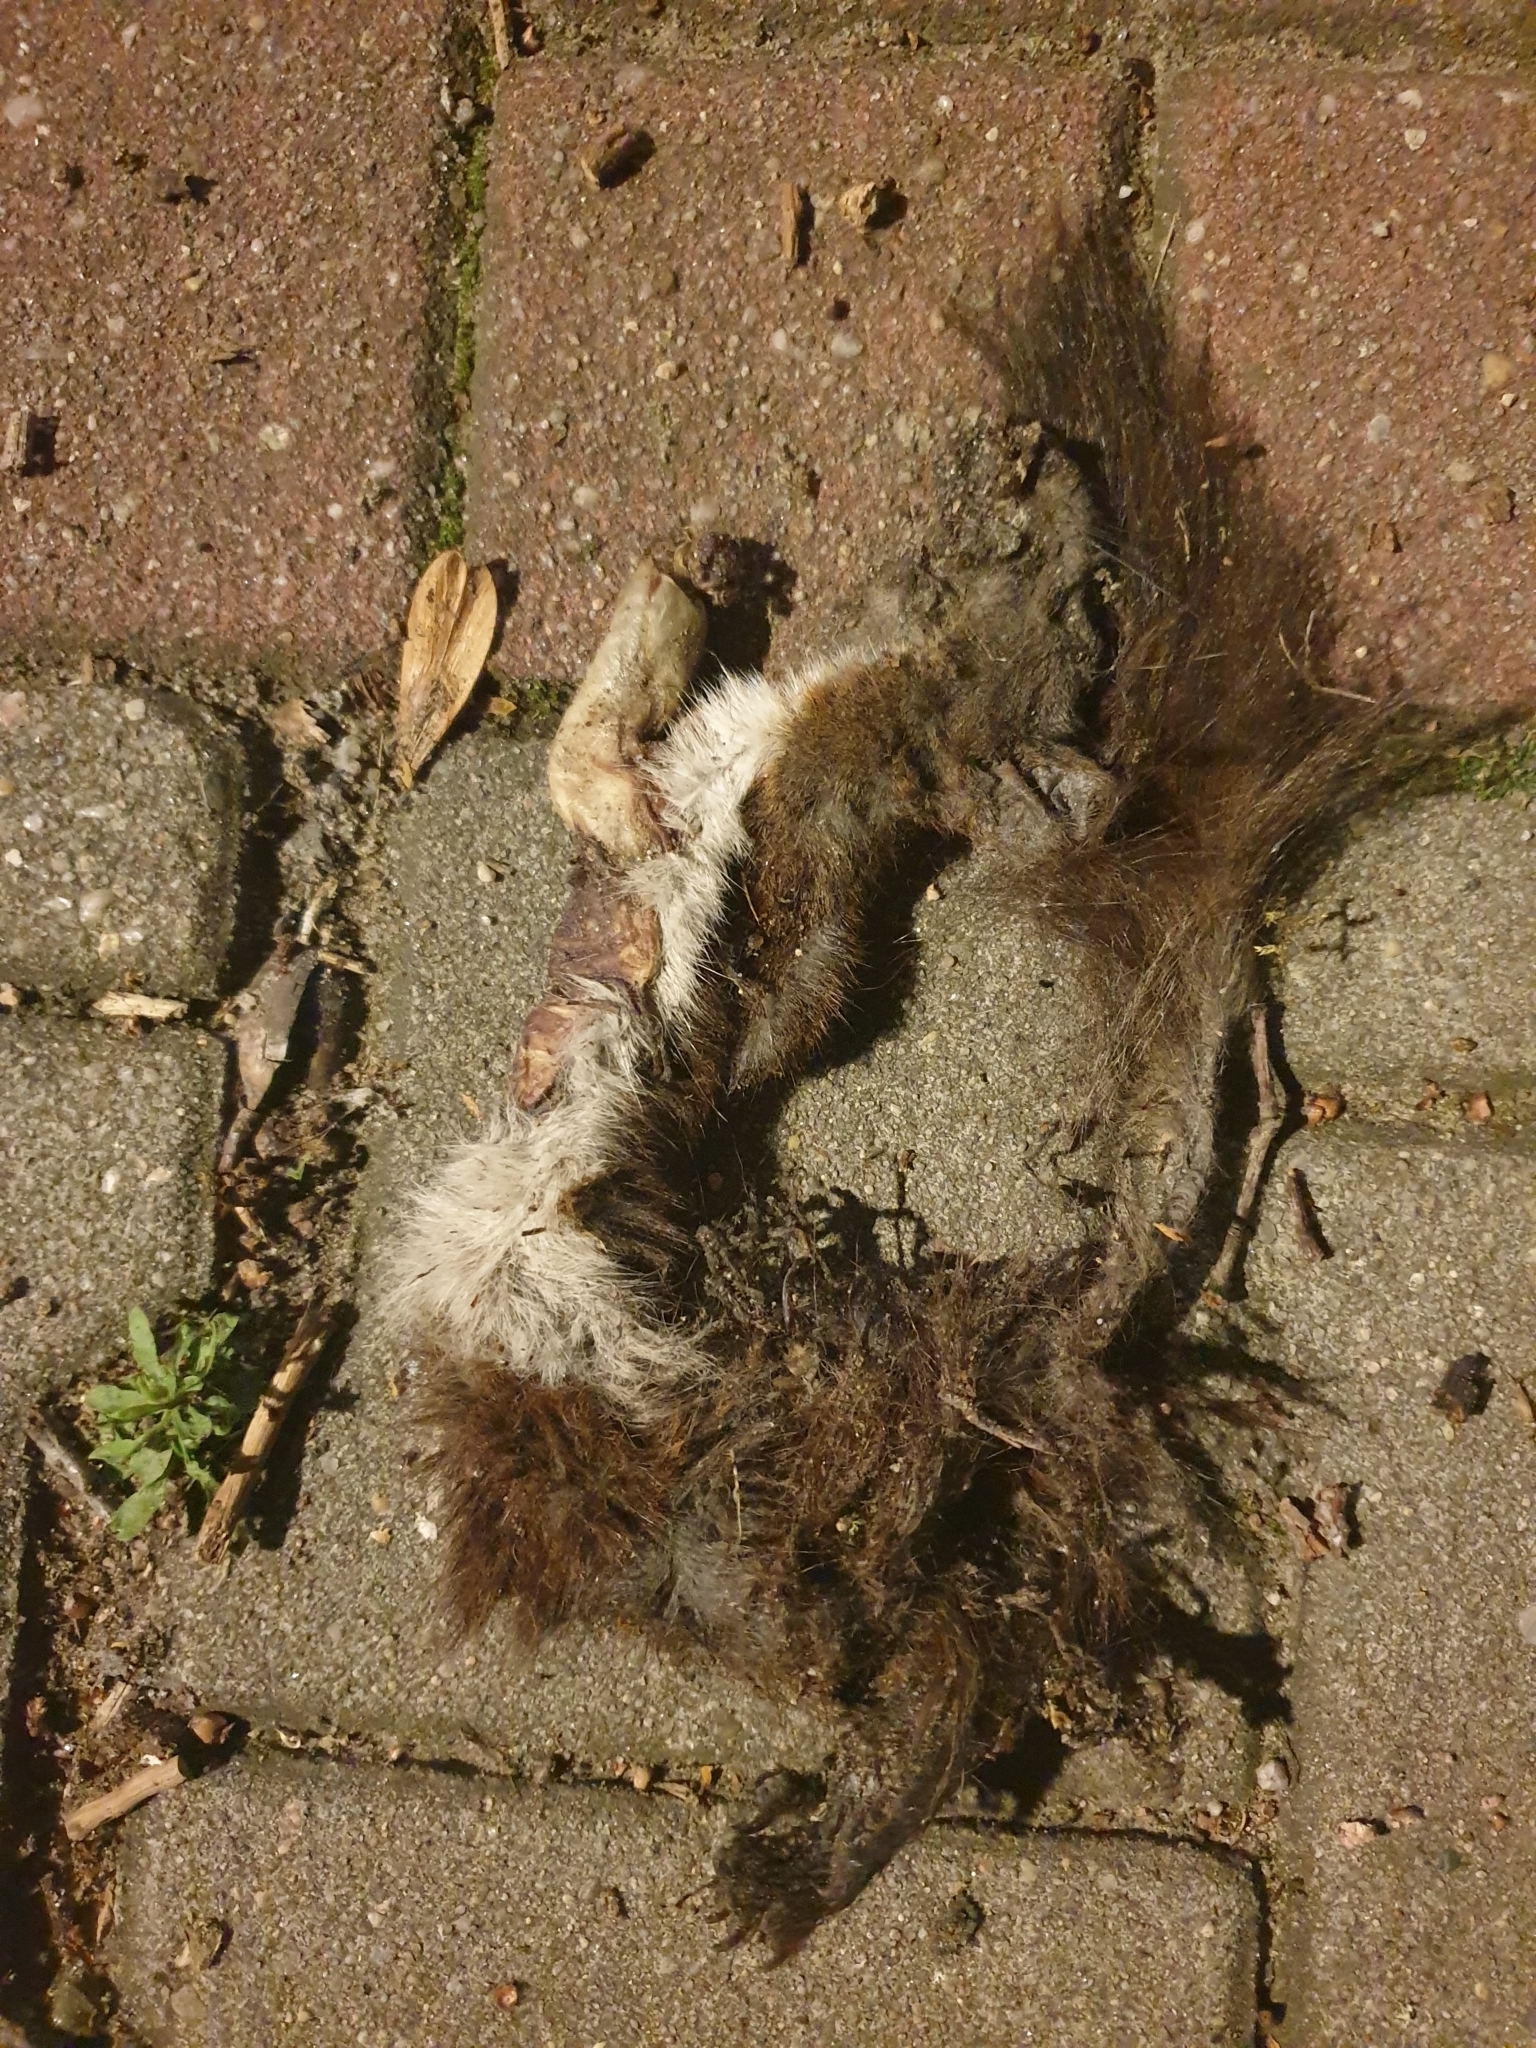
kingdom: Animalia
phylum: Chordata
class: Mammalia
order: Rodentia
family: Sciuridae
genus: Sciurus
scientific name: Sciurus vulgaris
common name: Eurasian red squirrel
